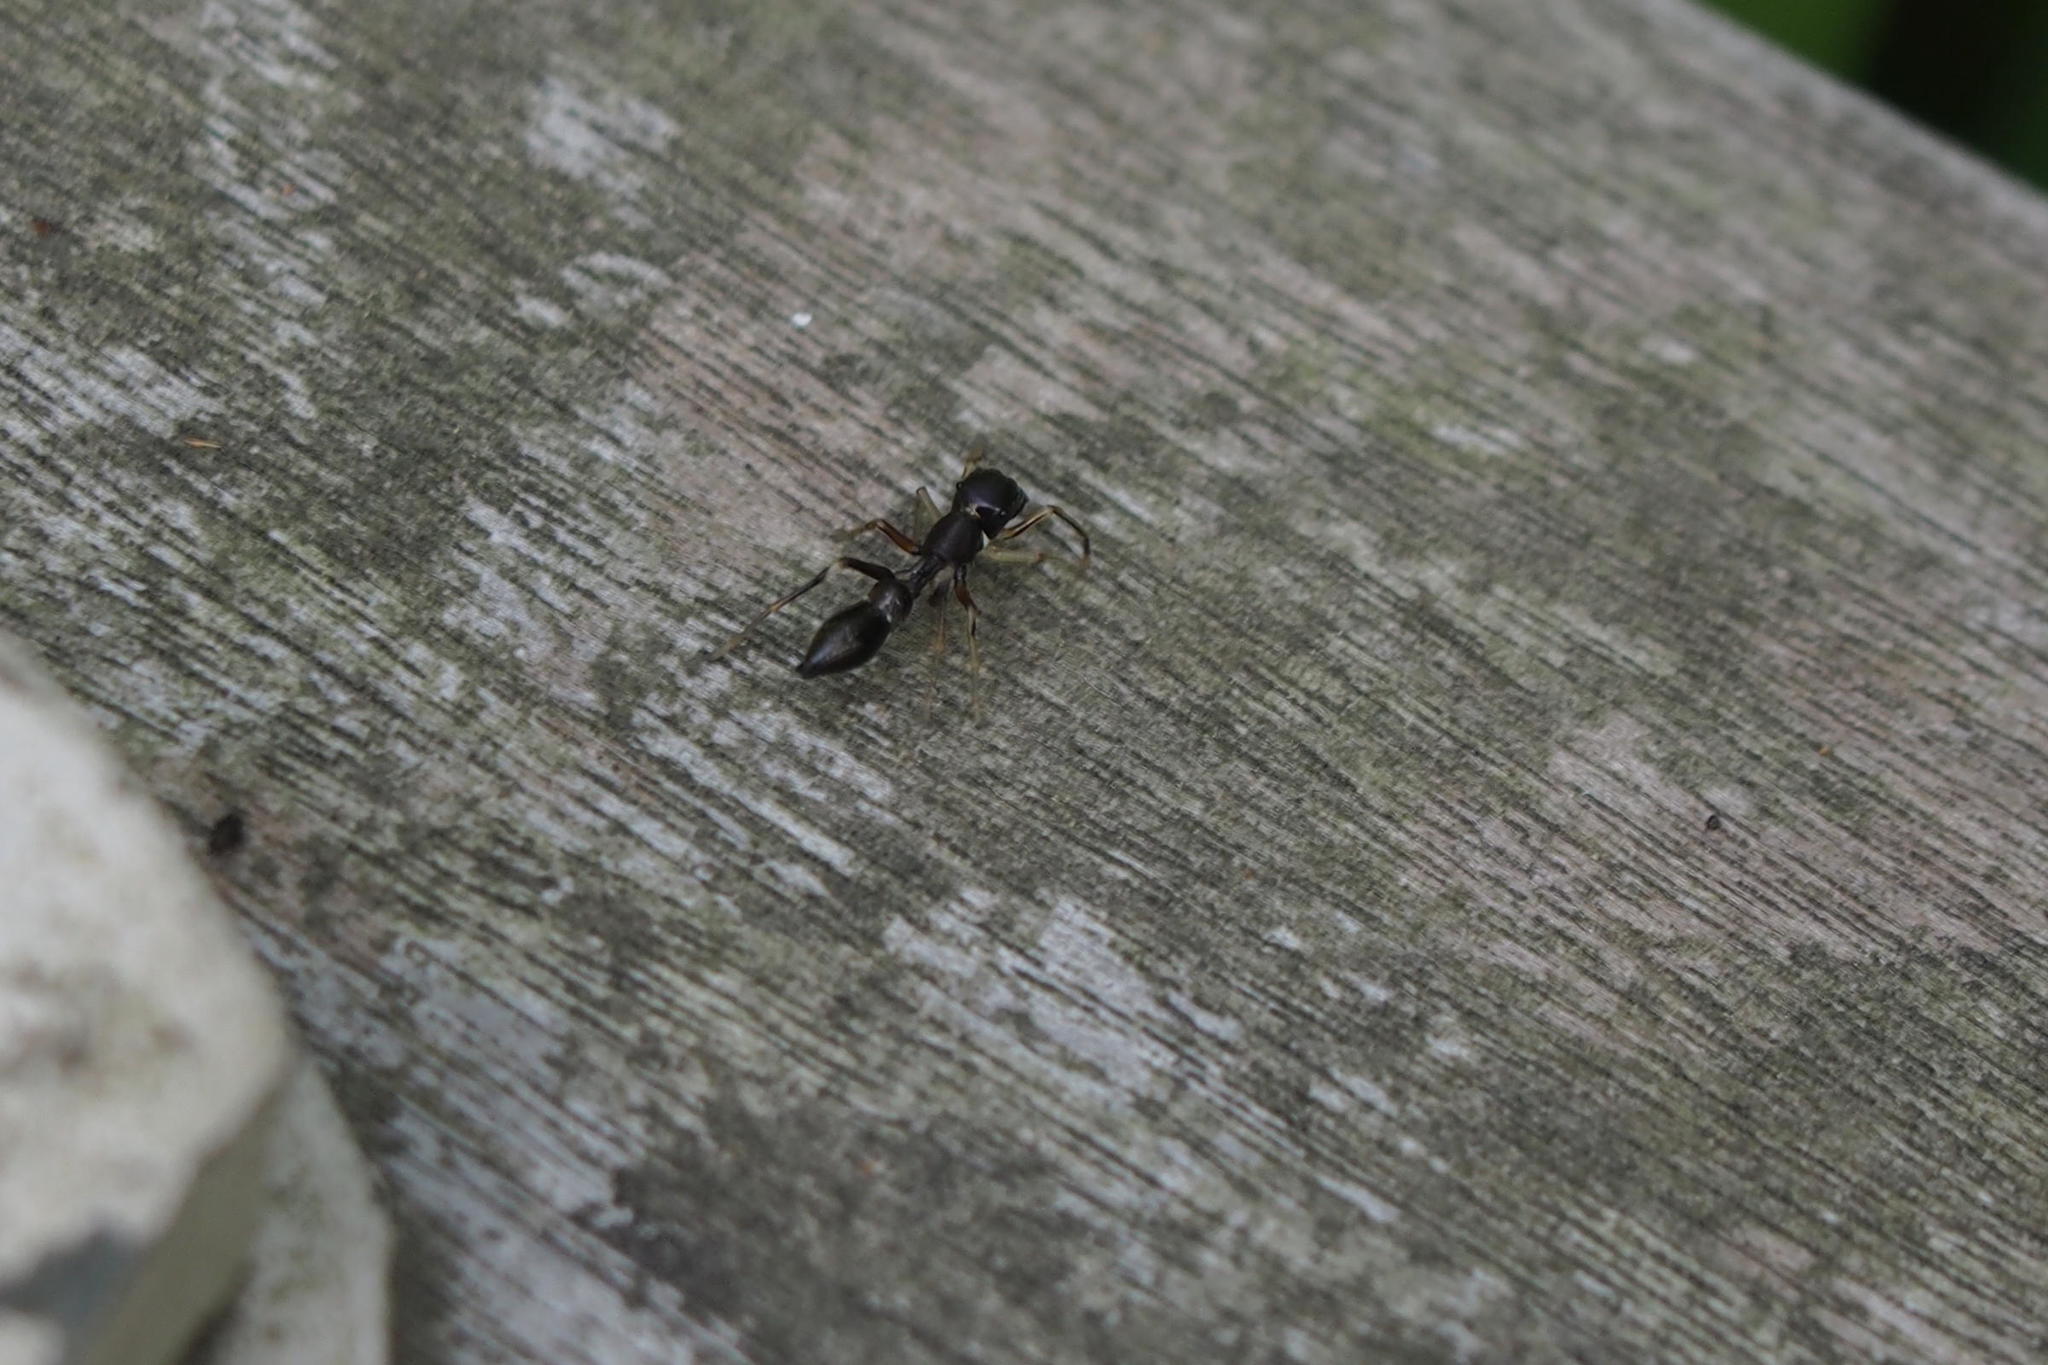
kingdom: Animalia
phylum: Arthropoda
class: Arachnida
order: Araneae
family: Salticidae
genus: Myrmarachne
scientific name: Myrmarachne inermichelis
